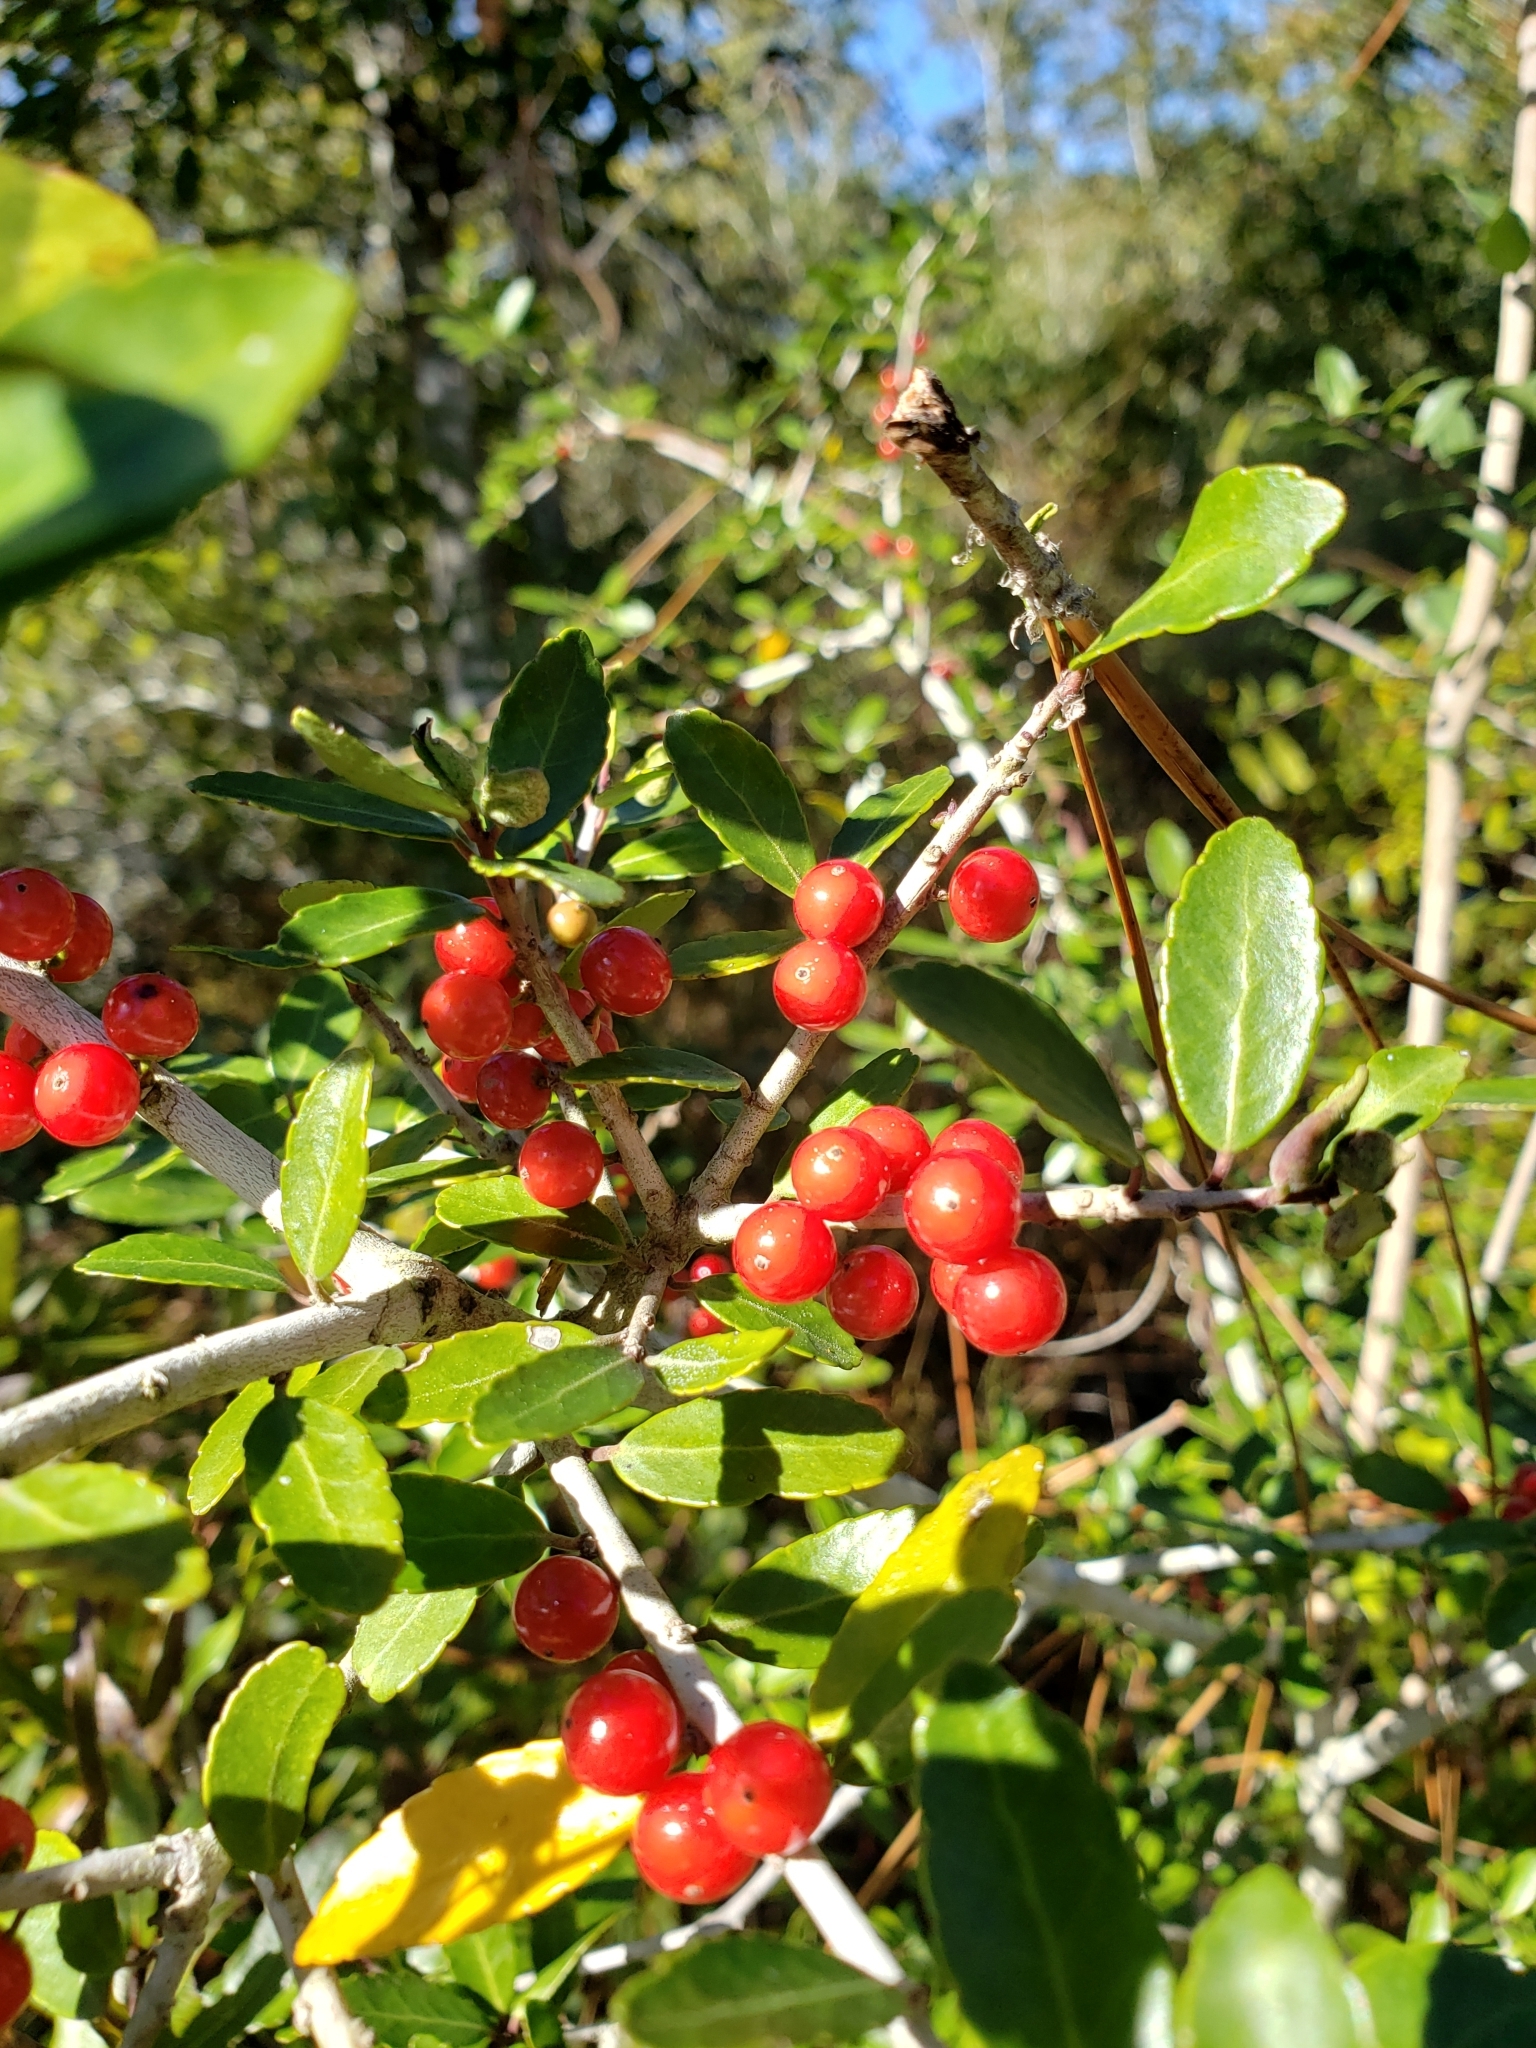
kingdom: Plantae
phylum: Tracheophyta
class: Magnoliopsida
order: Aquifoliales
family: Aquifoliaceae
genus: Ilex
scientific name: Ilex vomitoria
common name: Yaupon holly
